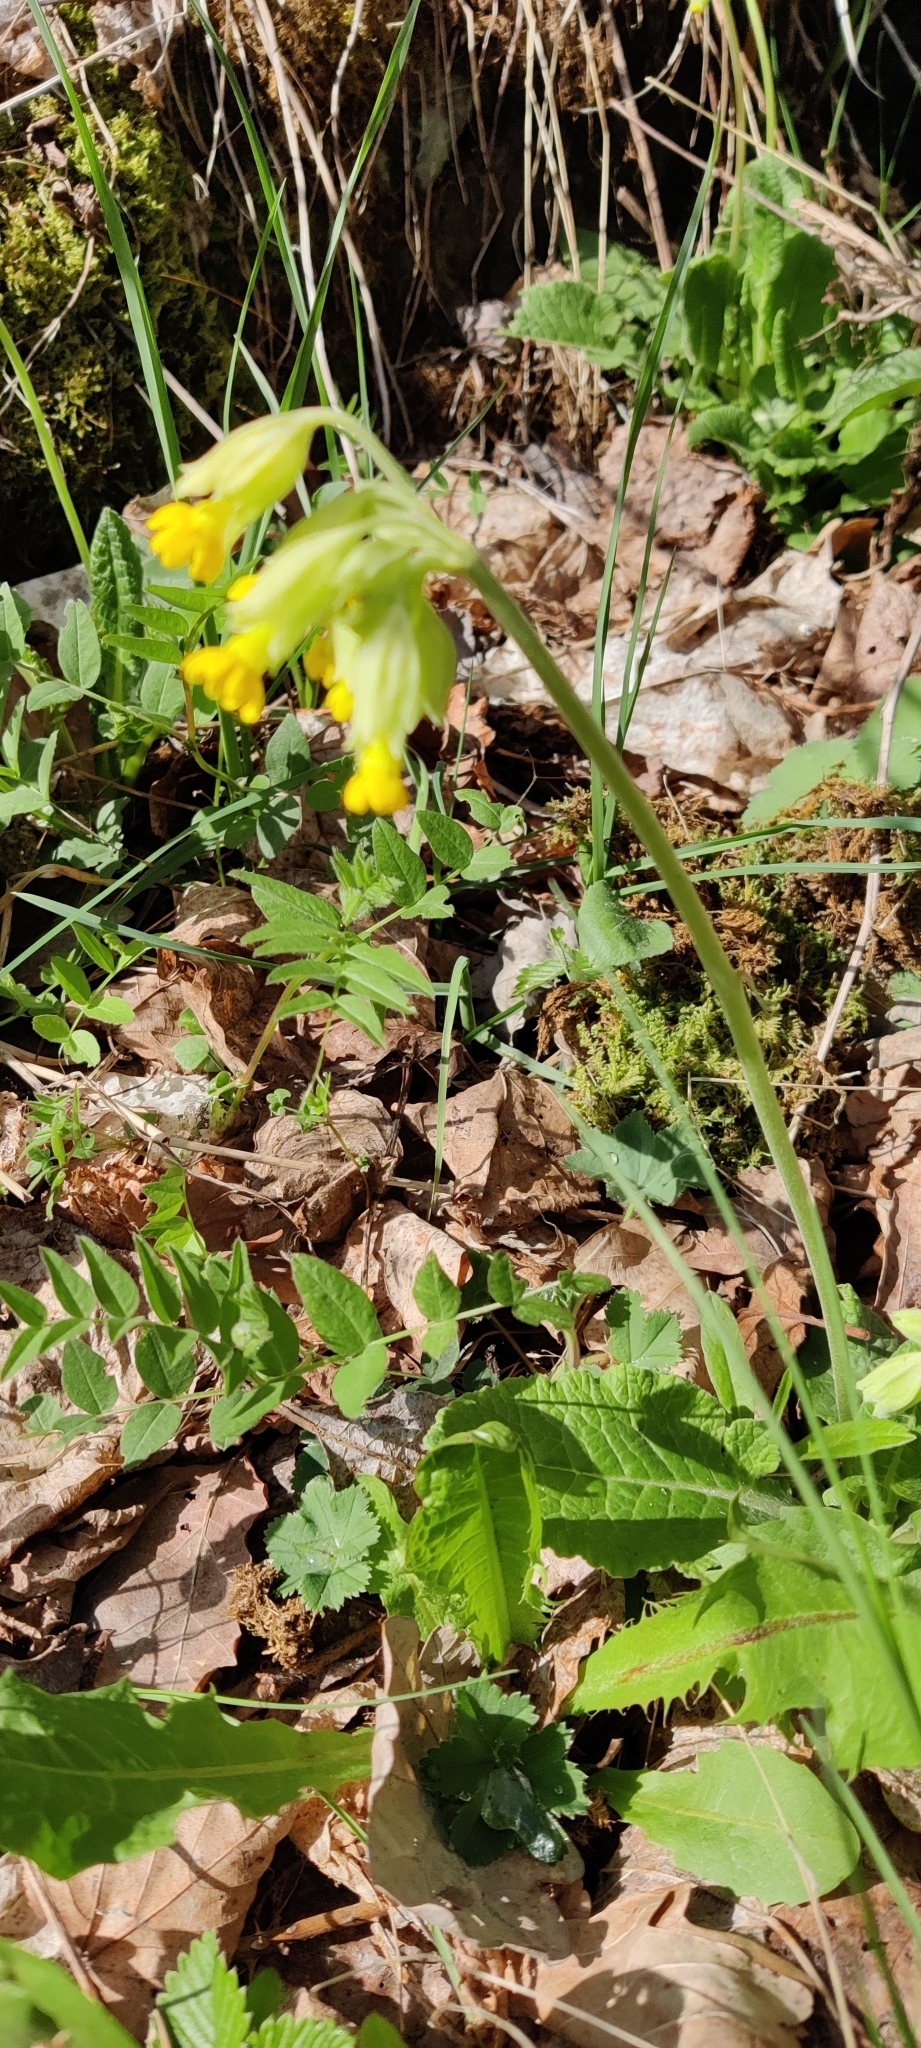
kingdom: Plantae
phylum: Tracheophyta
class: Magnoliopsida
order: Ericales
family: Primulaceae
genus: Primula
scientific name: Primula veris
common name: Cowslip
